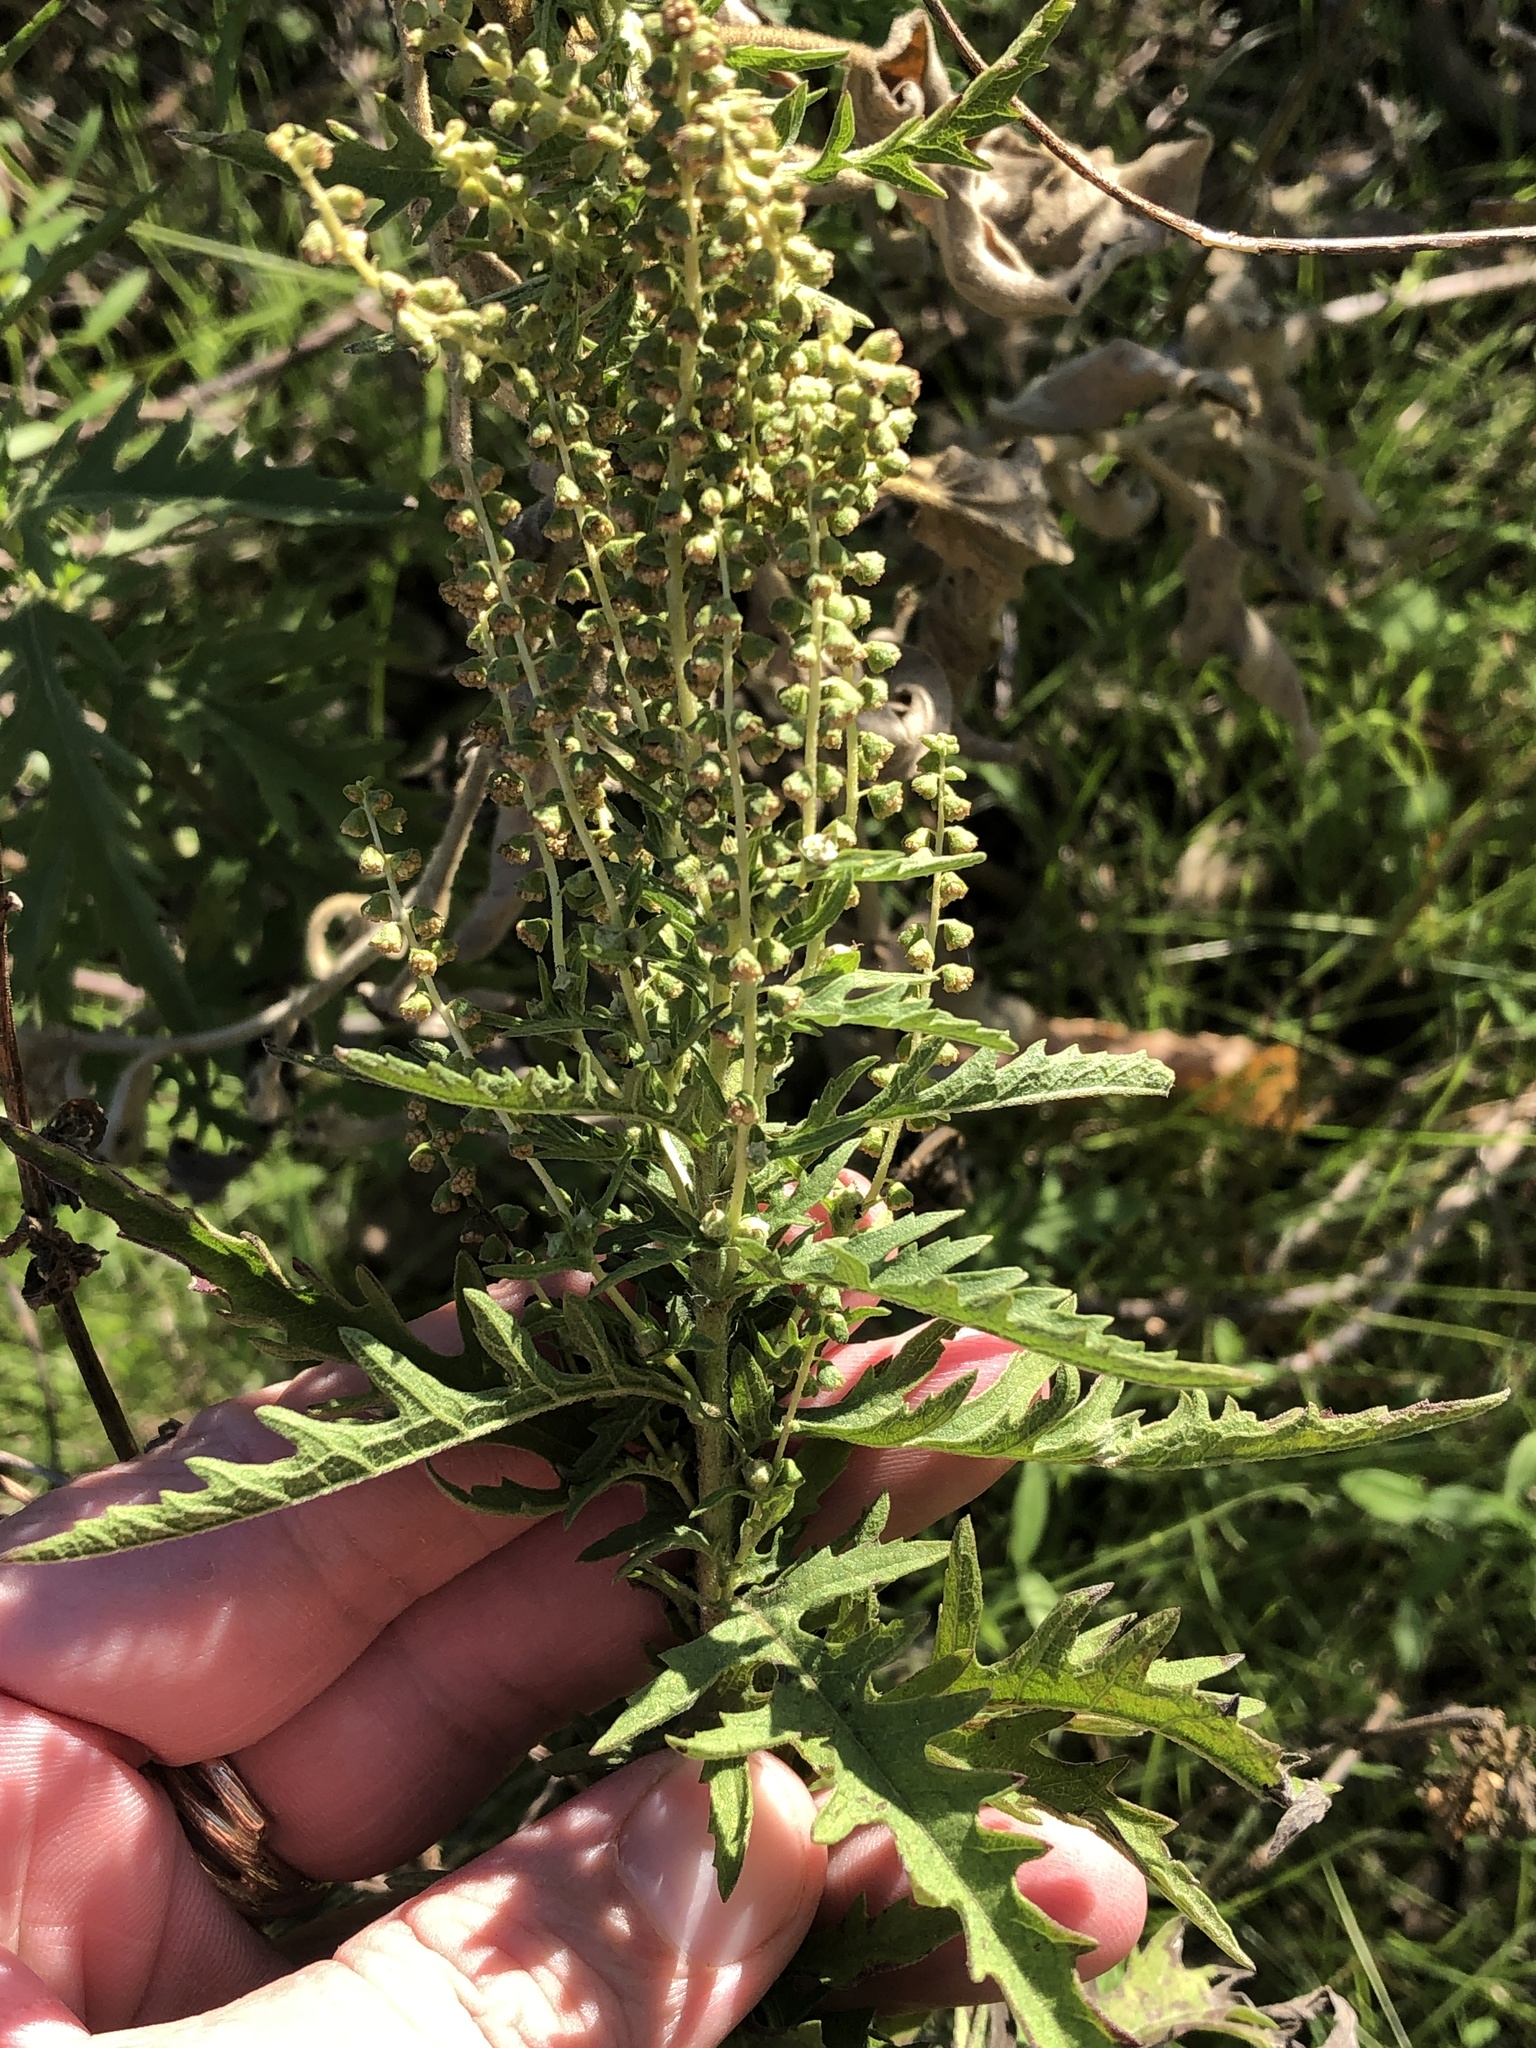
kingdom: Plantae
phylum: Tracheophyta
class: Magnoliopsida
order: Asterales
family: Asteraceae
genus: Ambrosia
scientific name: Ambrosia psilostachya
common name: Perennial ragweed
